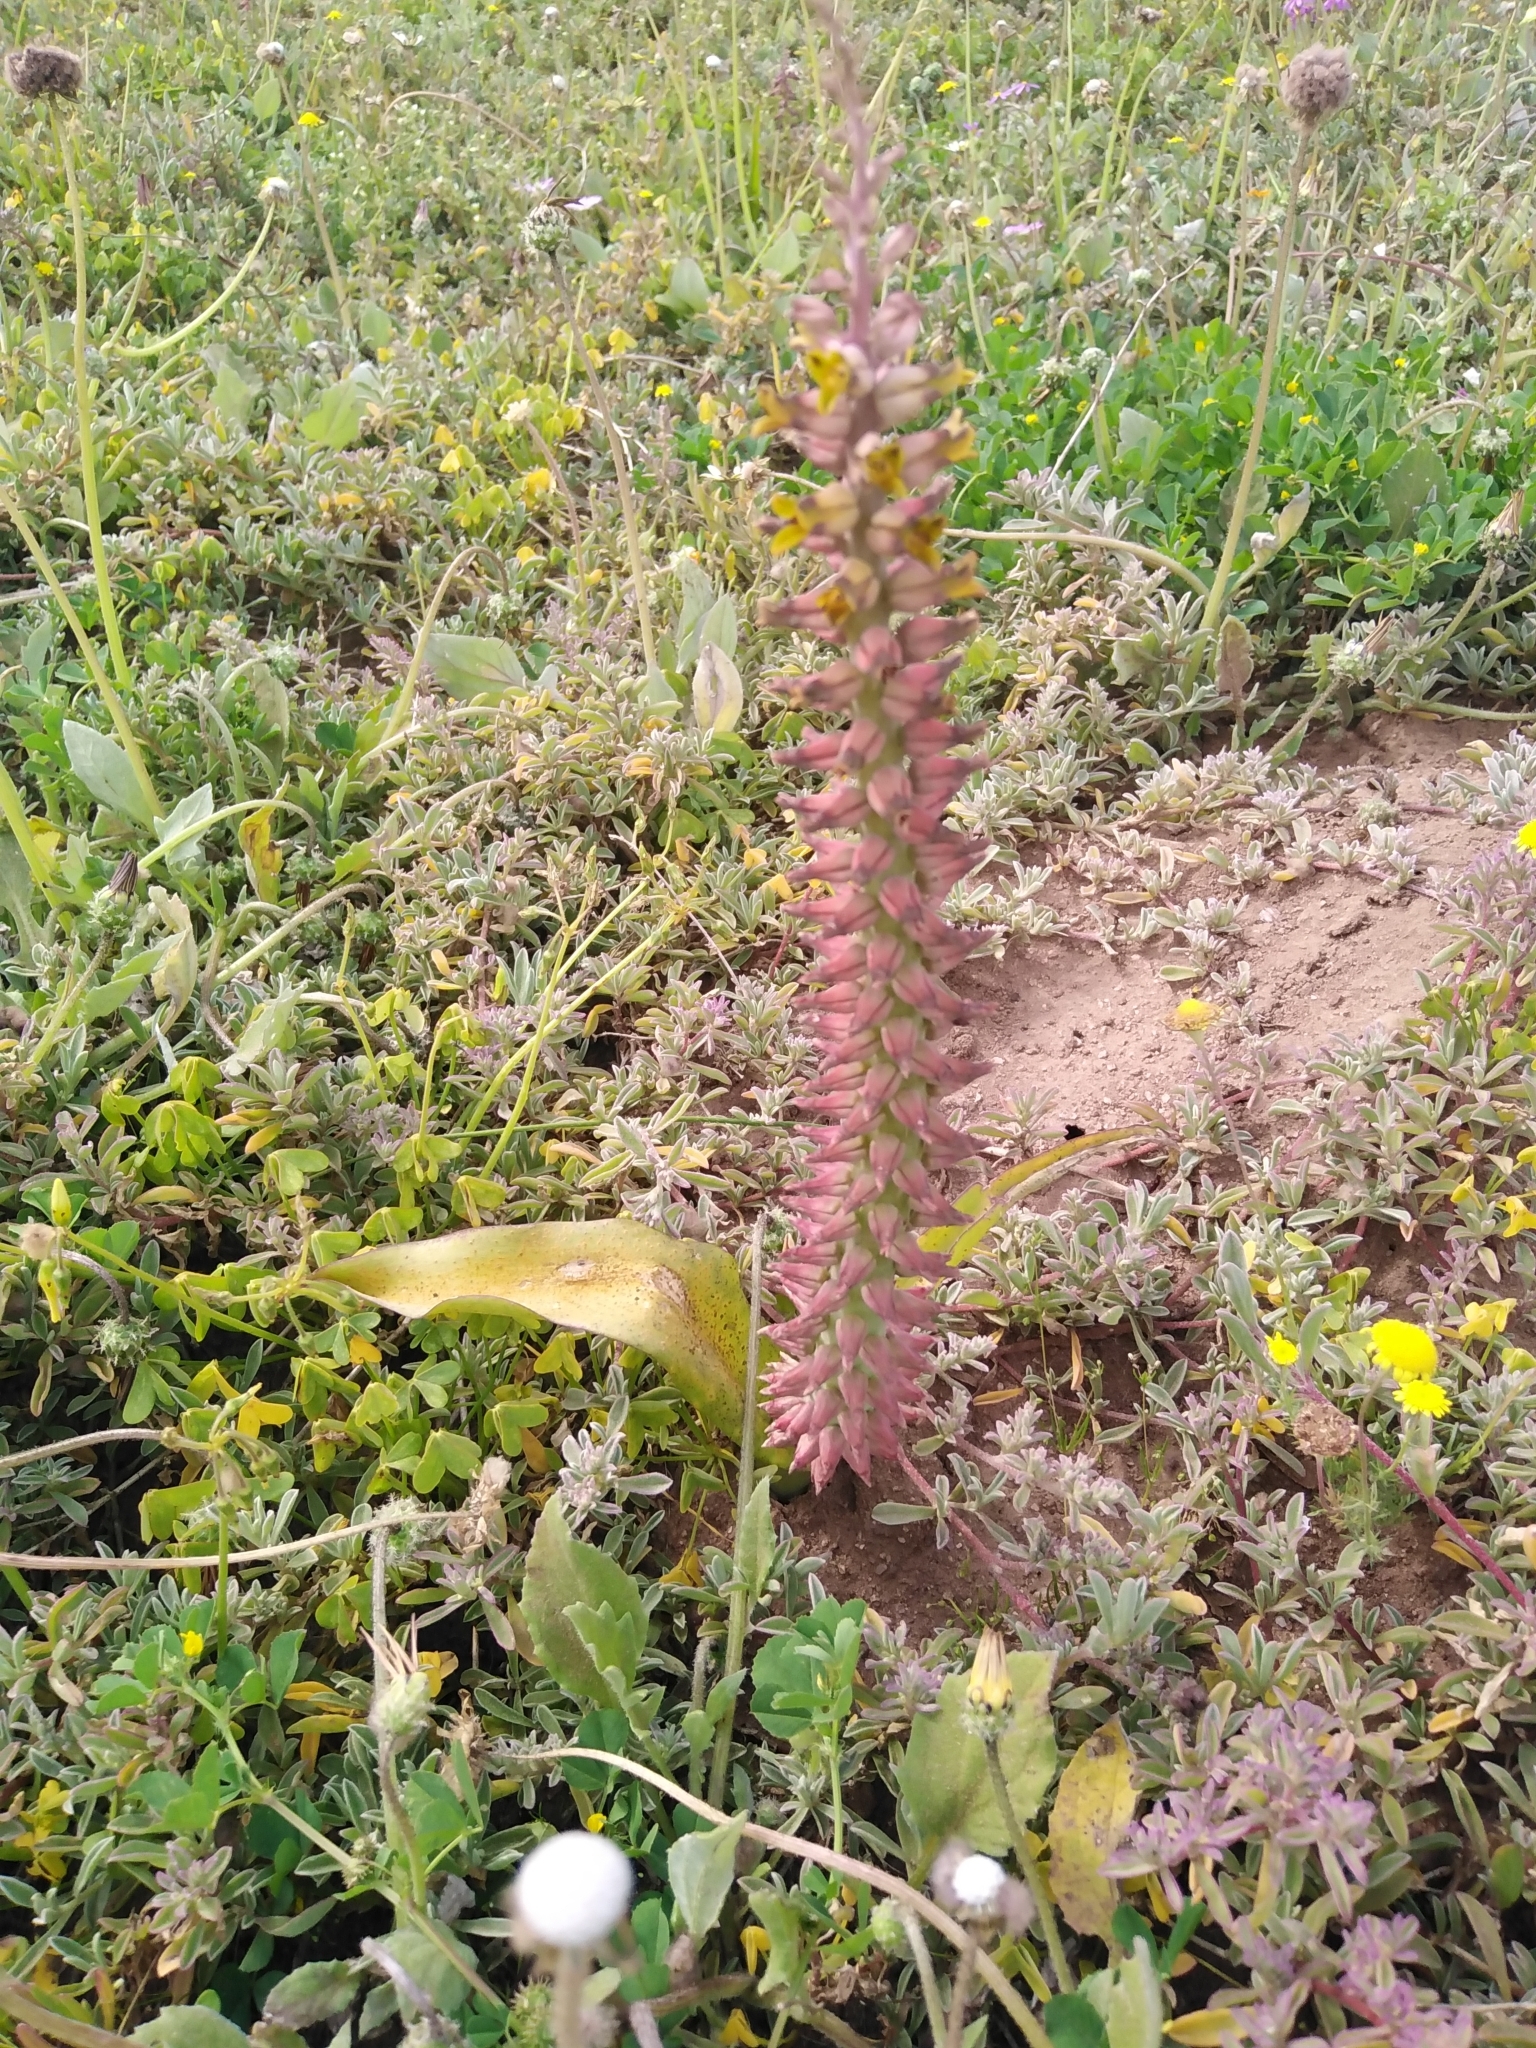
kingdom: Plantae
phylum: Tracheophyta
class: Liliopsida
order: Asparagales
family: Asparagaceae
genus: Lachenalia
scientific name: Lachenalia mutabilis
